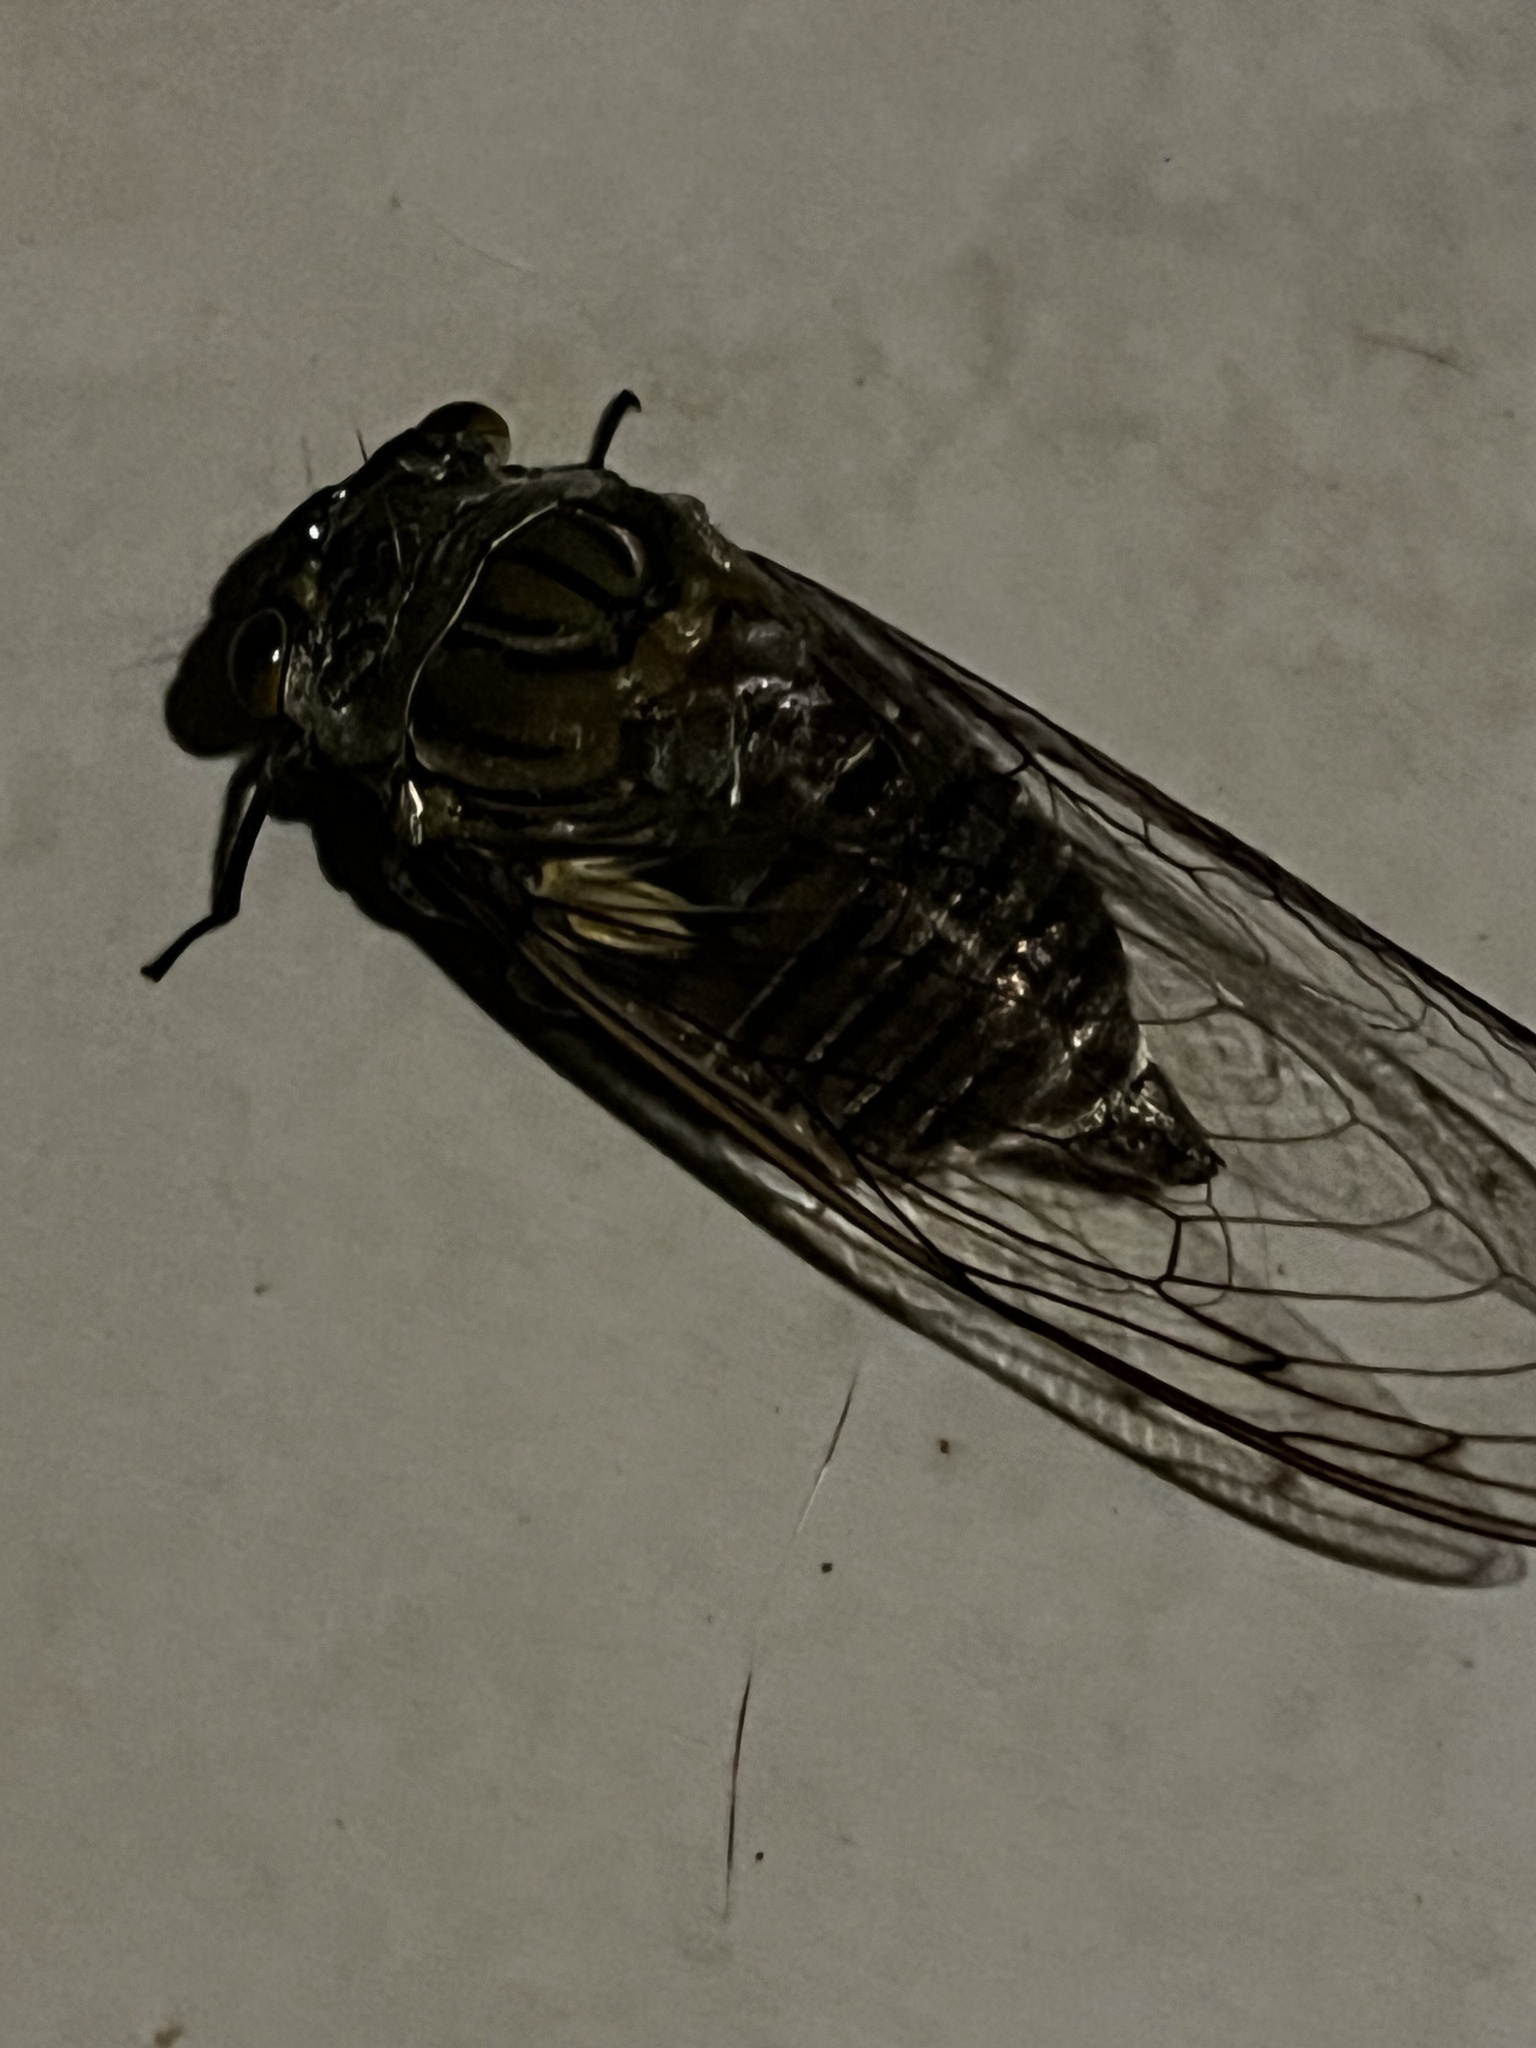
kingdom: Animalia
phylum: Arthropoda
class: Insecta
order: Hemiptera
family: Cicadidae
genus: Quesada
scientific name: Quesada gigas
